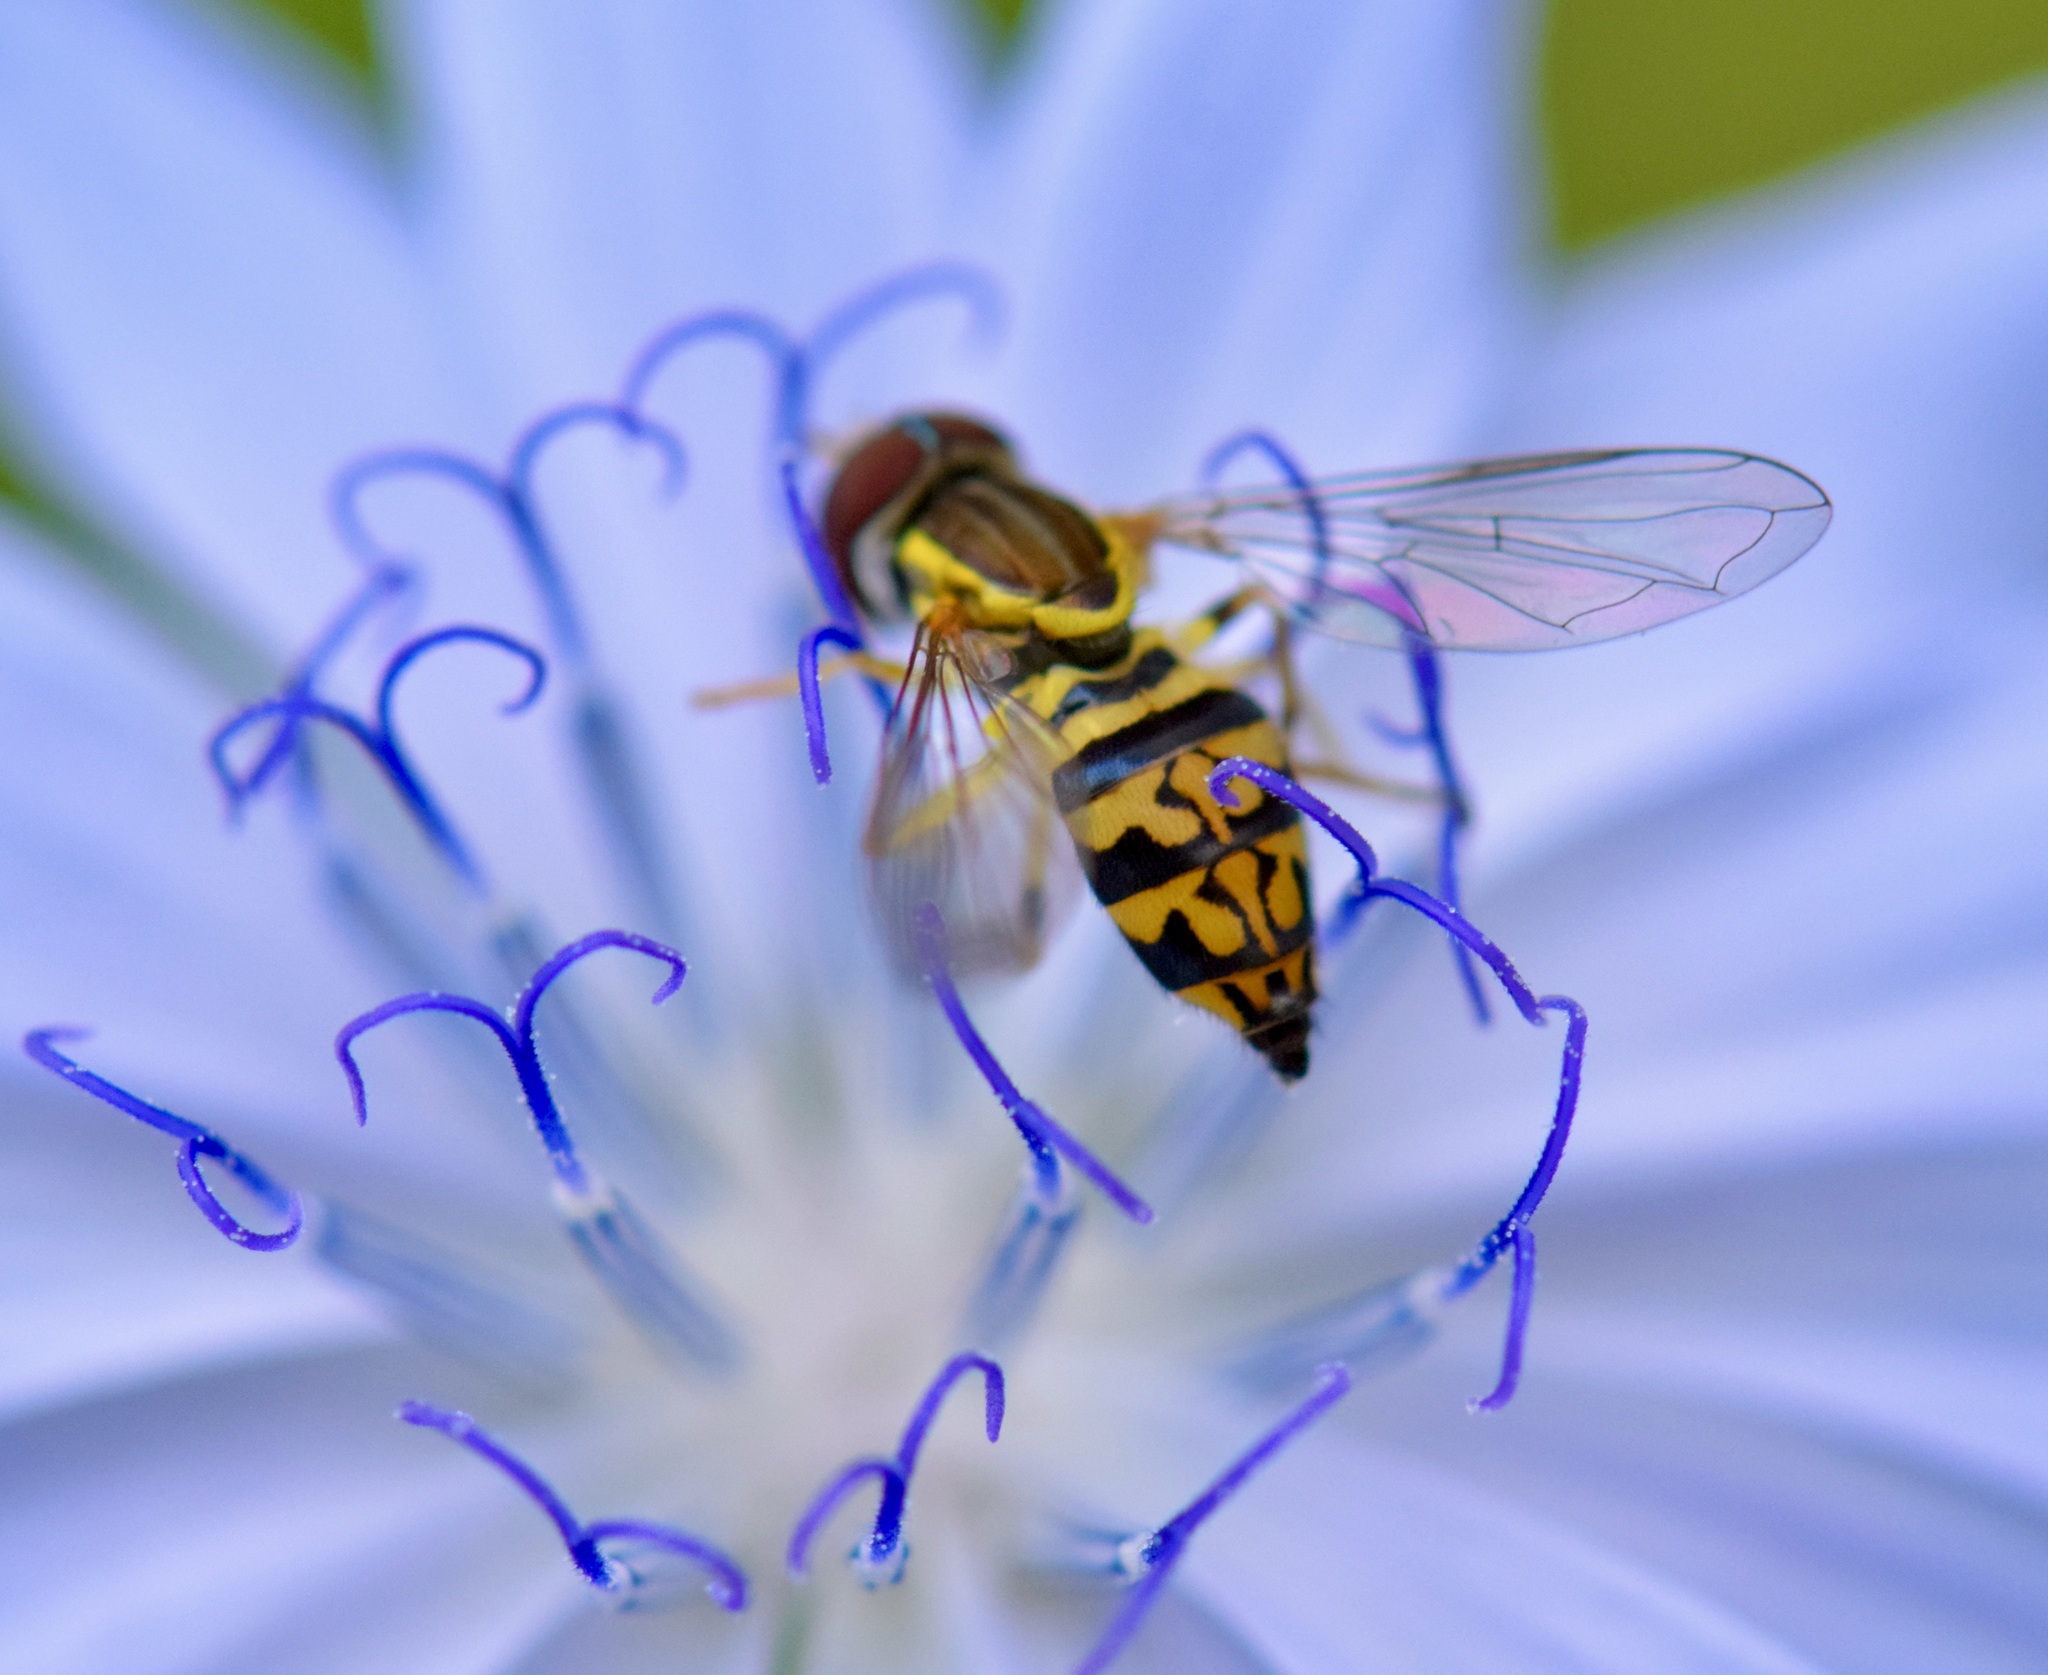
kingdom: Animalia
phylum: Arthropoda
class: Insecta
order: Diptera
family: Syrphidae
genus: Toxomerus
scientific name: Toxomerus geminatus
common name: Eastern calligrapher
